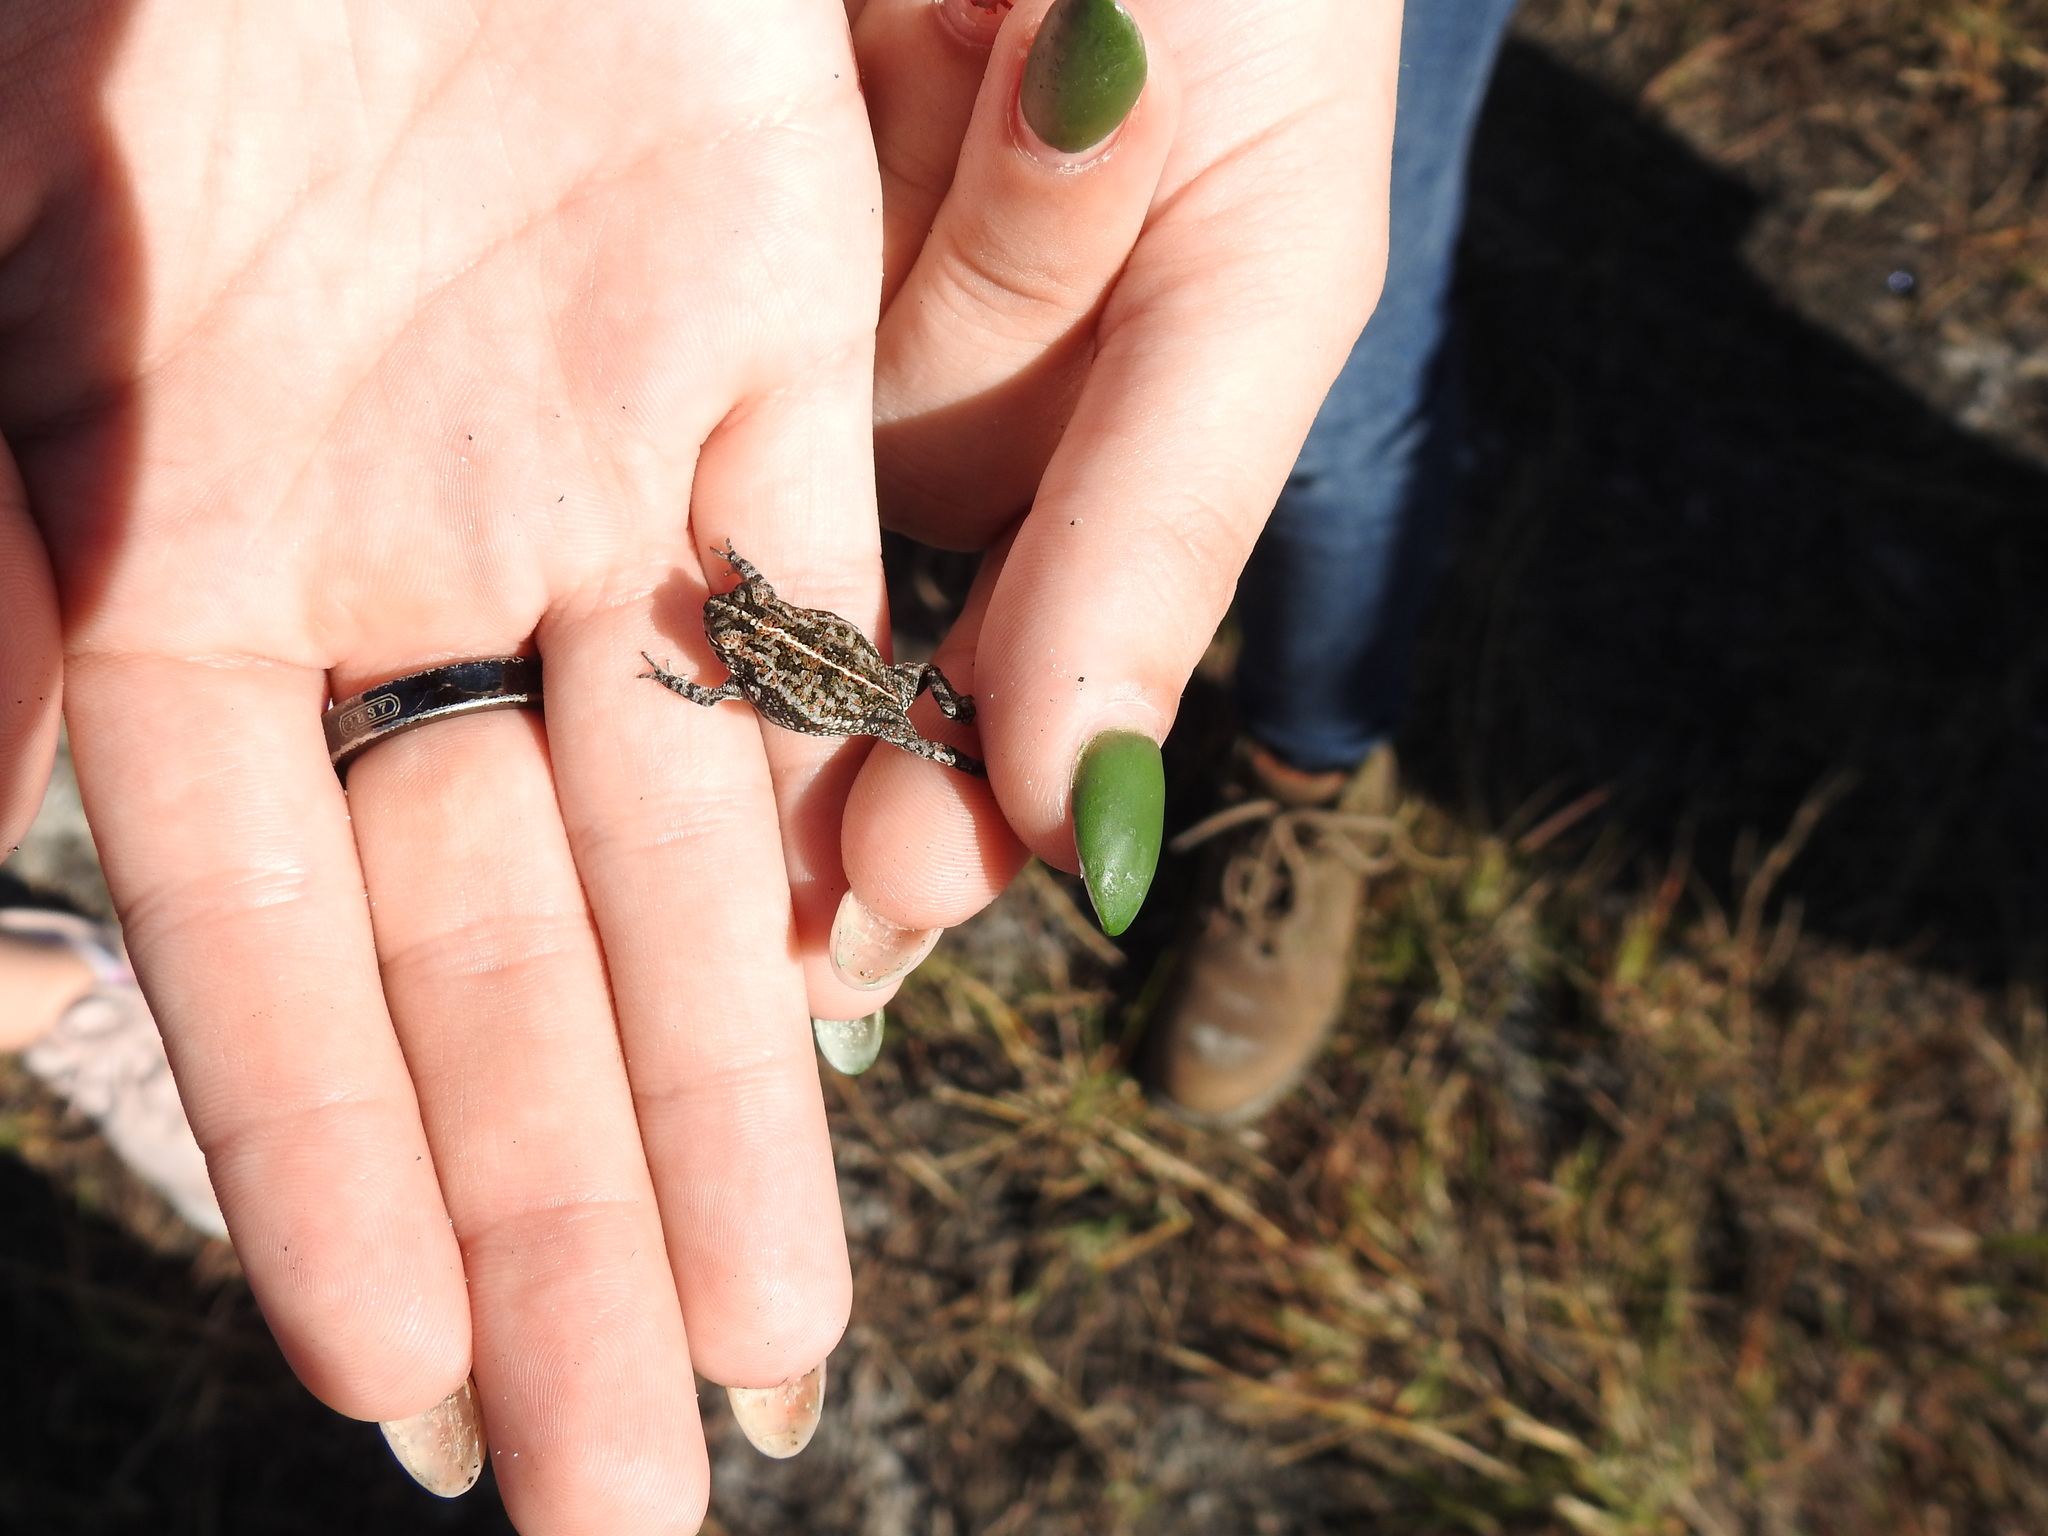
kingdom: Animalia
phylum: Chordata
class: Amphibia
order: Anura
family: Bufonidae
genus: Anaxyrus
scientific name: Anaxyrus quercicus
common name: Oak toad
